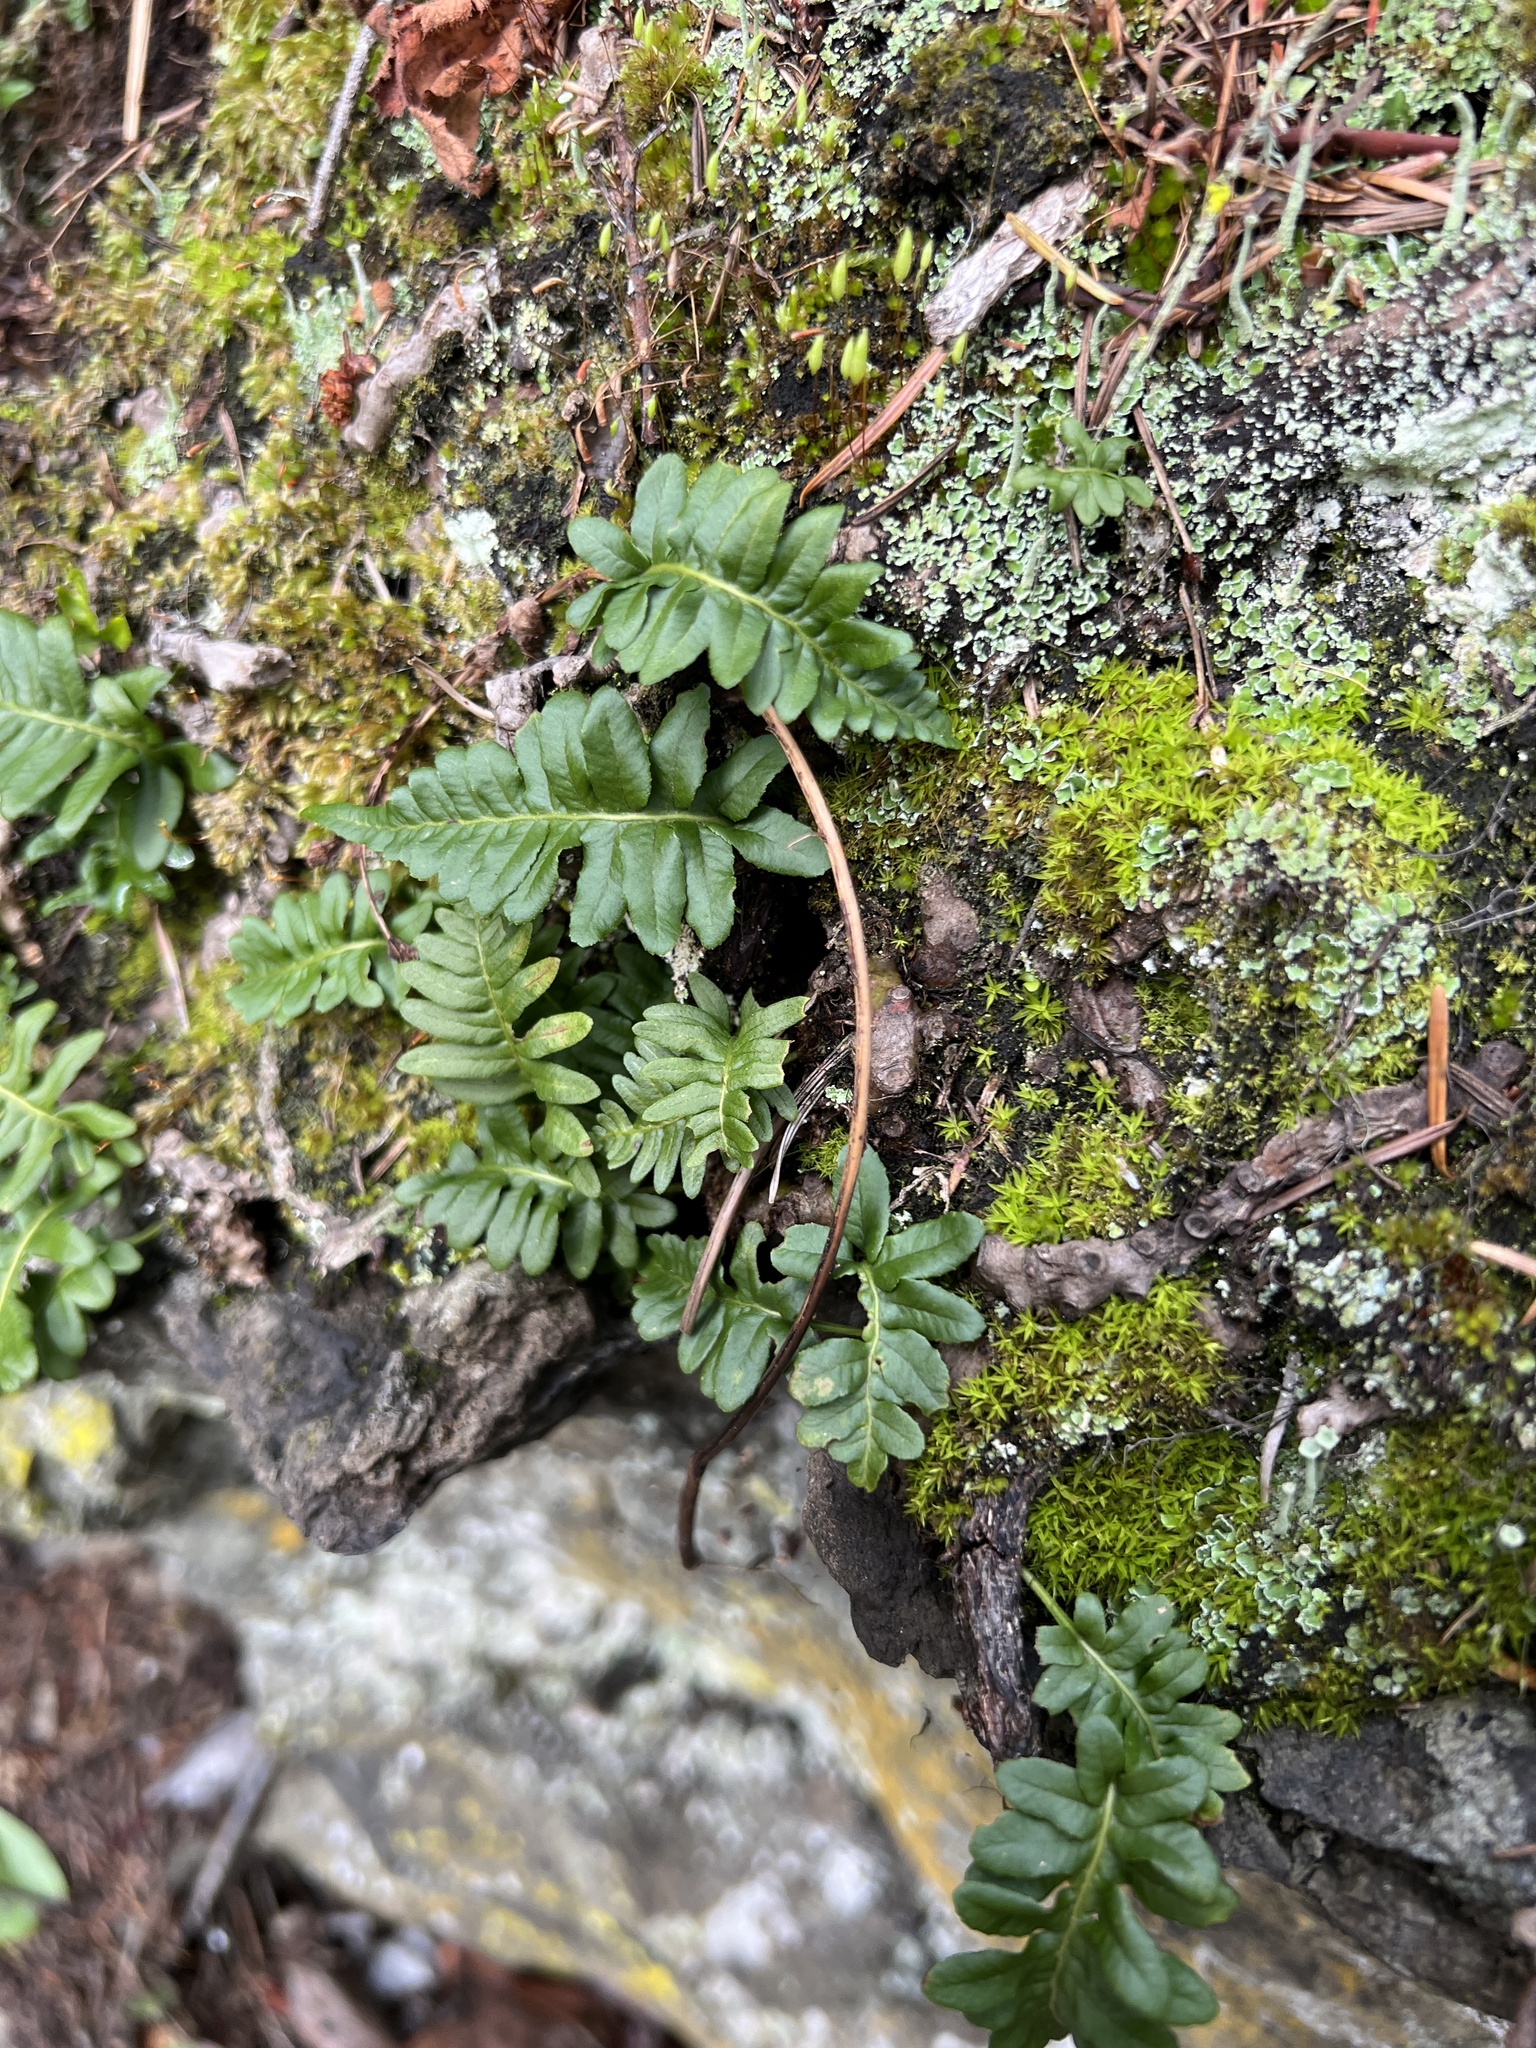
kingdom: Plantae
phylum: Tracheophyta
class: Polypodiopsida
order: Polypodiales
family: Polypodiaceae
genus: Polypodium
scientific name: Polypodium glycyrrhiza
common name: Licorice fern
